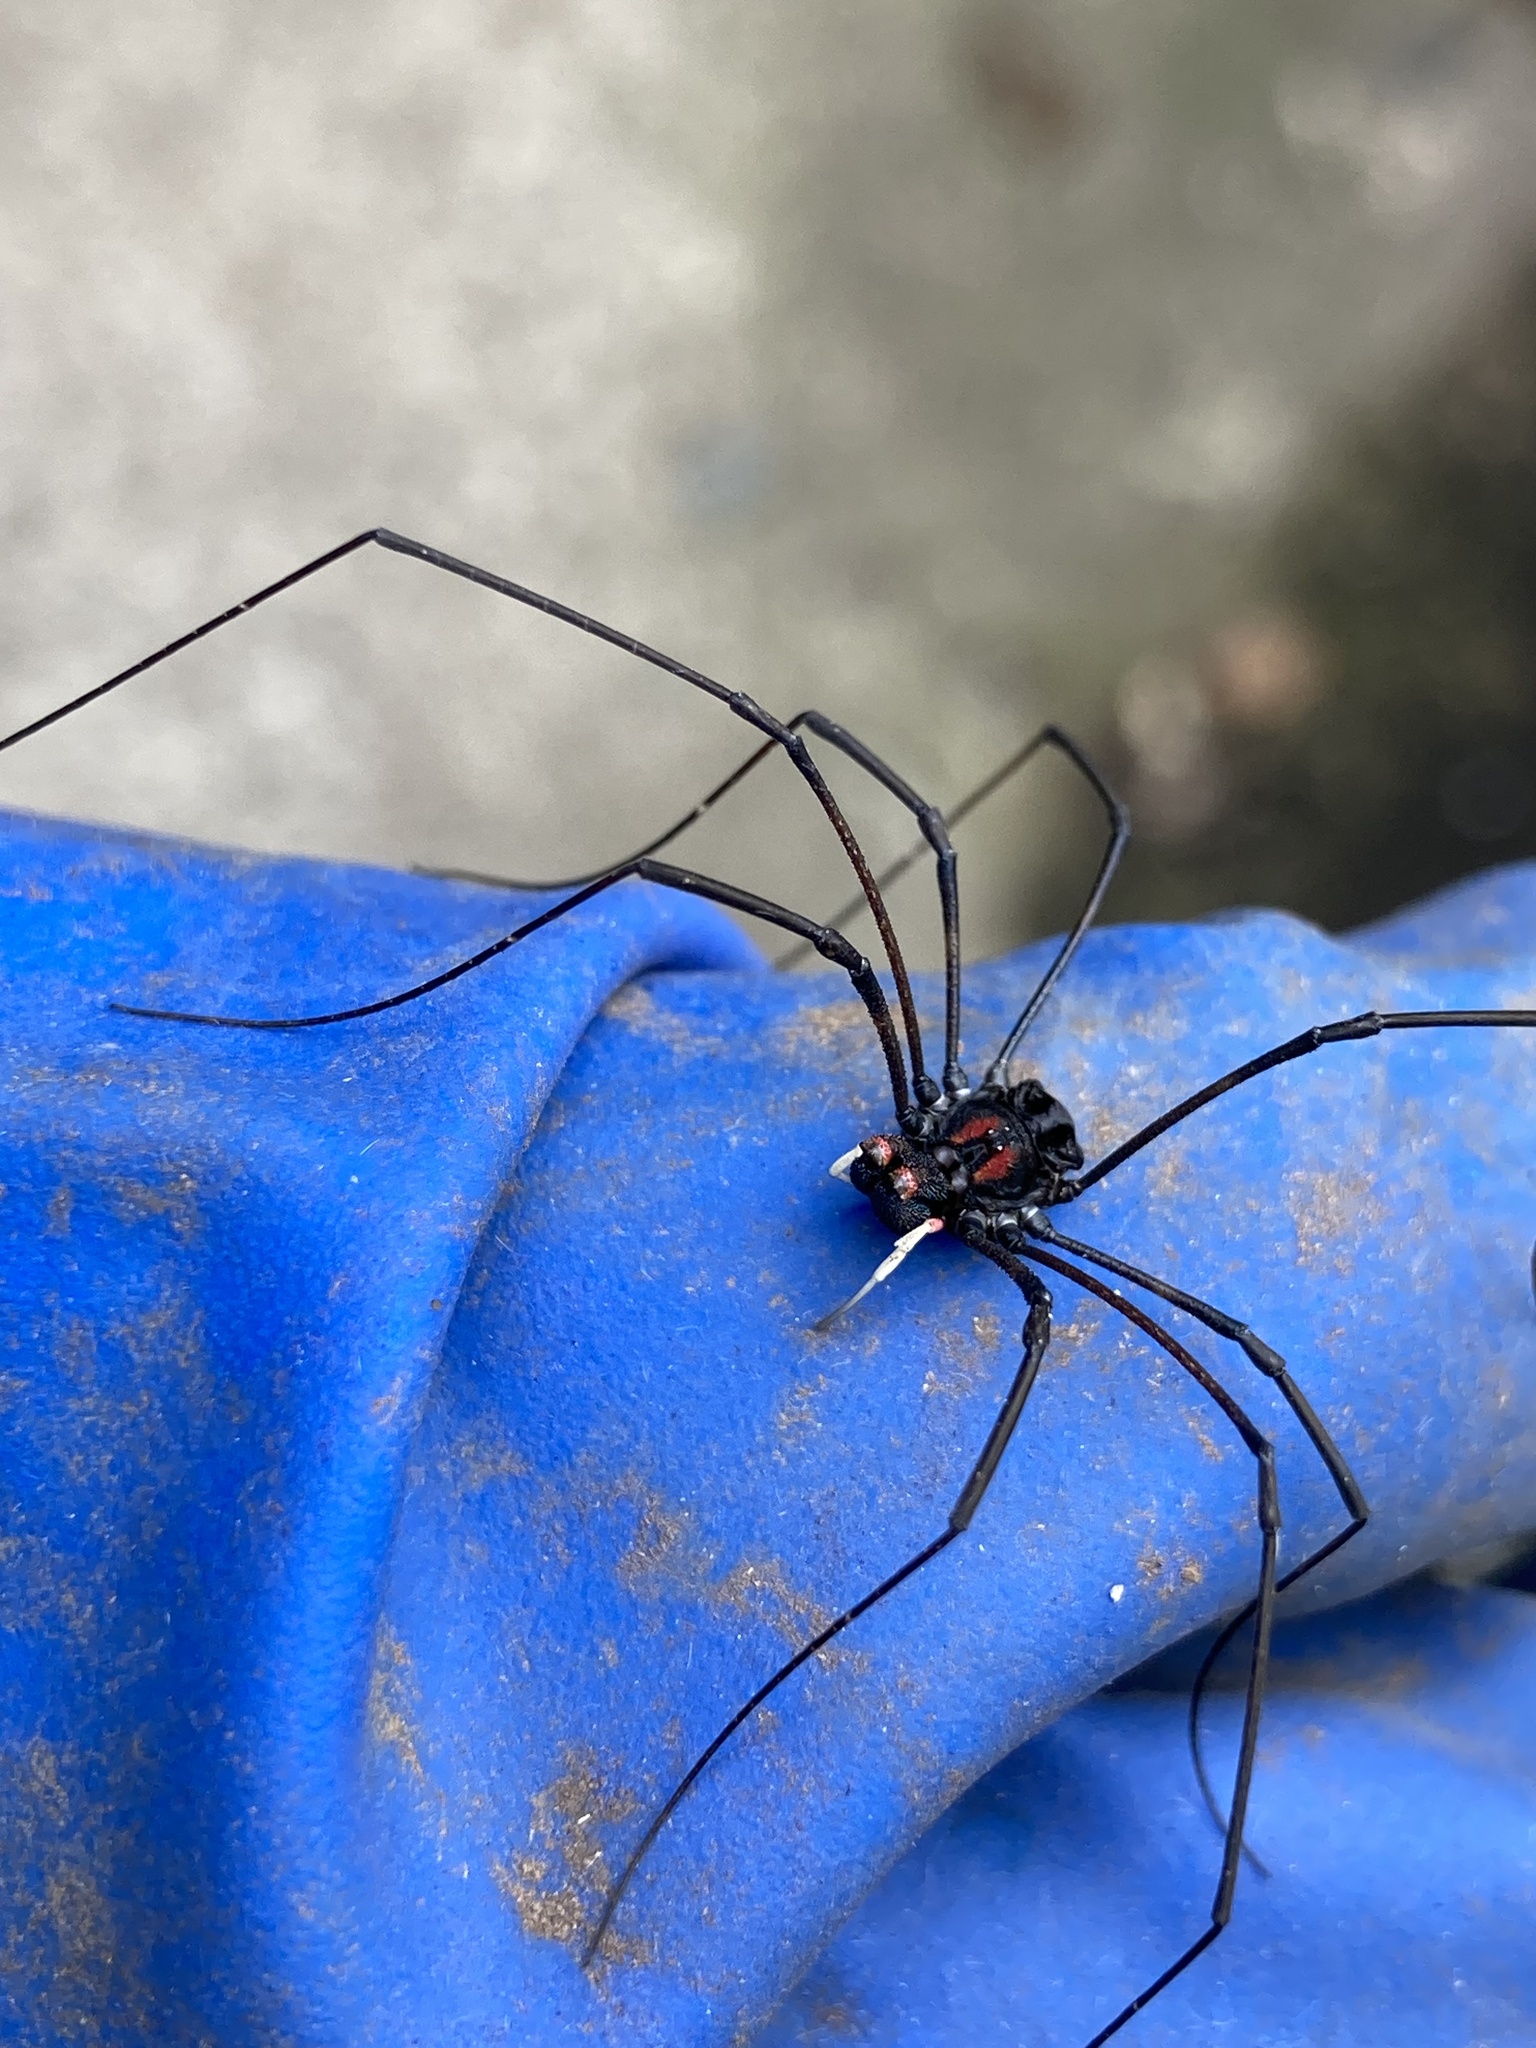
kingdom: Animalia
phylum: Arthropoda
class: Arachnida
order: Opiliones
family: Neopilionidae
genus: Forsteropsalis
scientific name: Forsteropsalis inconstans
